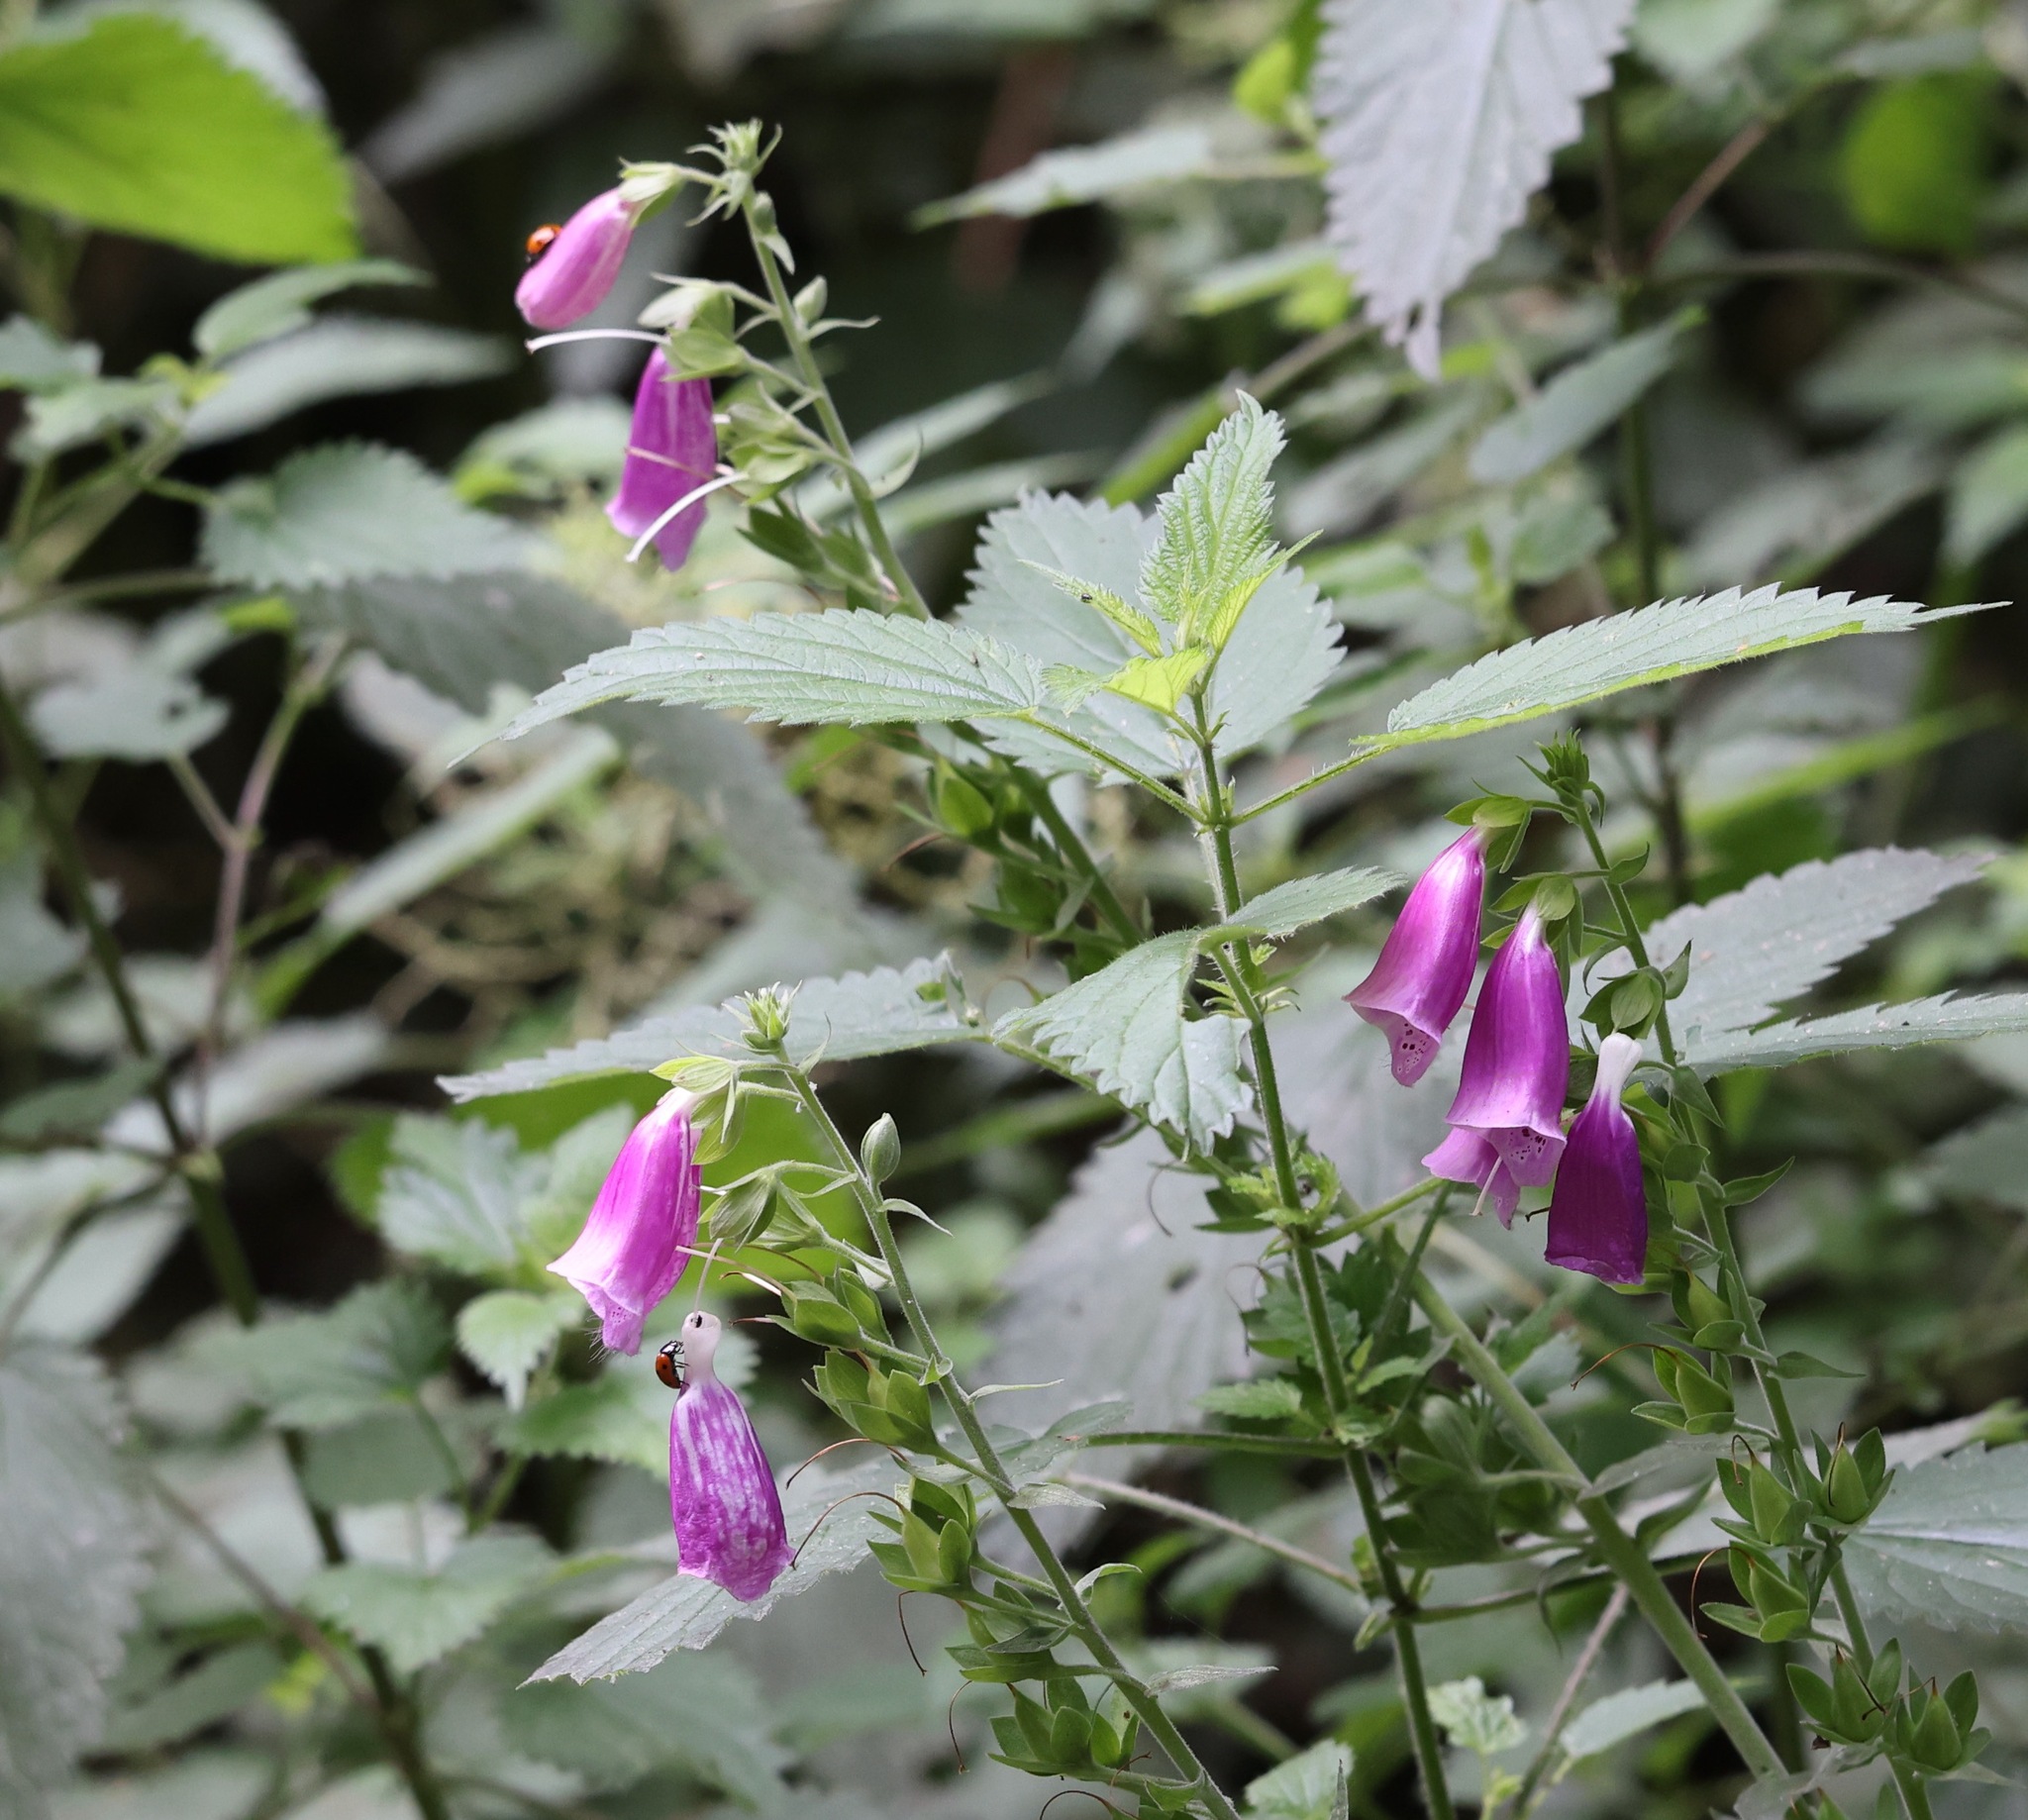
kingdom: Plantae
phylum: Tracheophyta
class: Magnoliopsida
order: Lamiales
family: Plantaginaceae
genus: Digitalis
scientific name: Digitalis purpurea
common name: Foxglove
